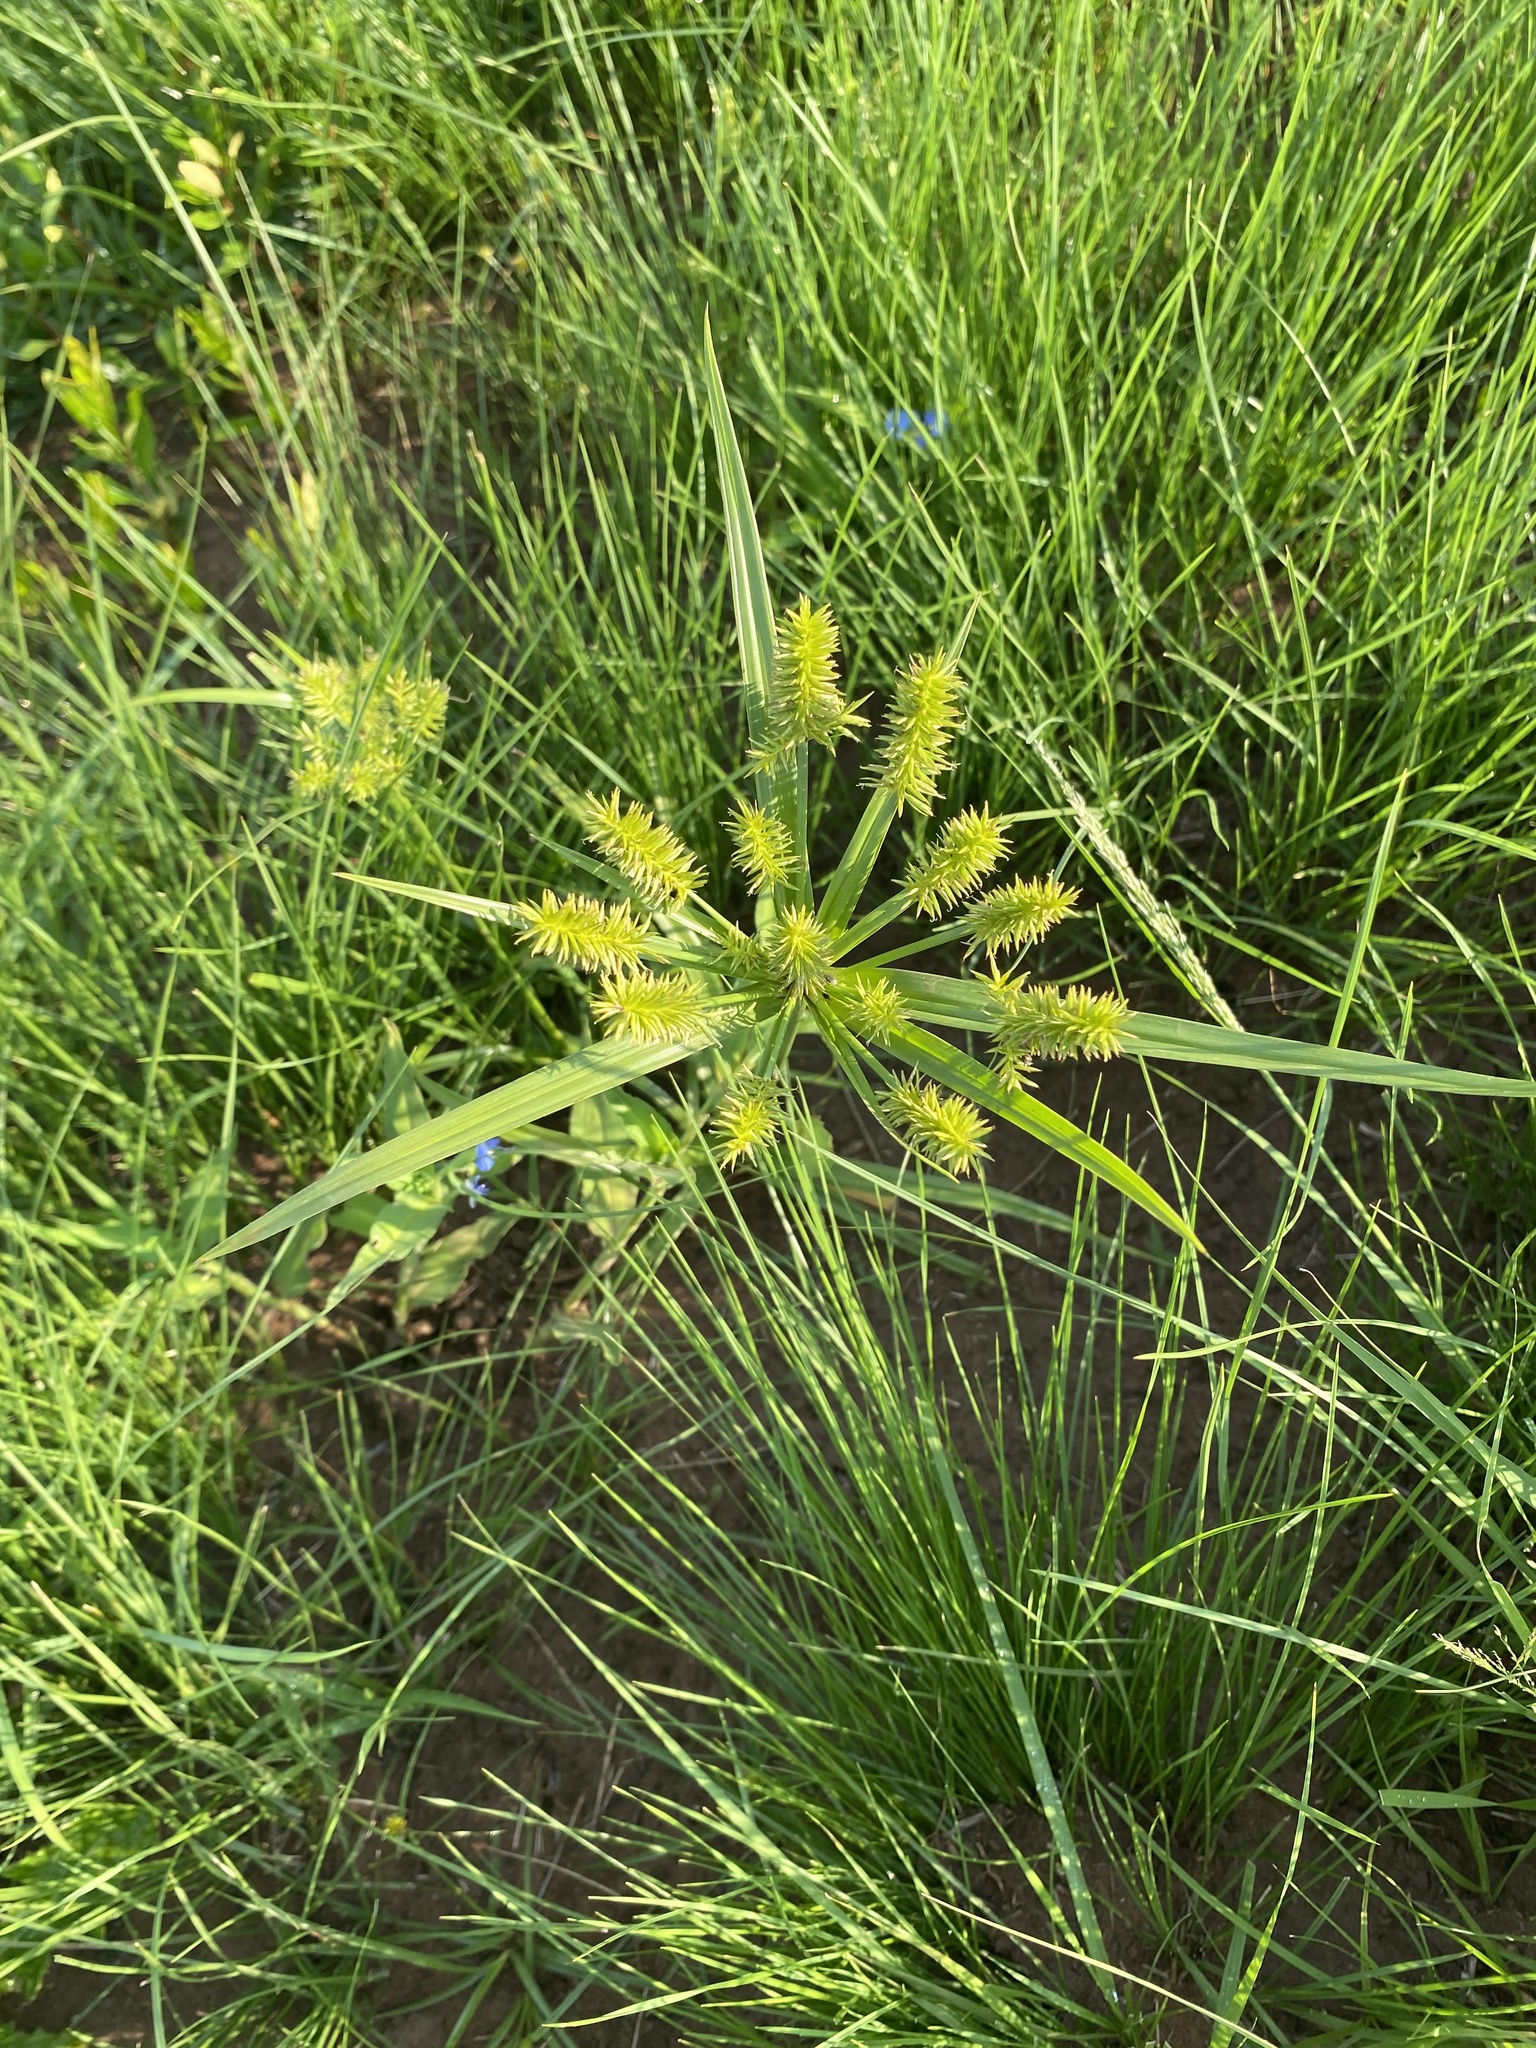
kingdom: Plantae
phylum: Tracheophyta
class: Liliopsida
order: Poales
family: Cyperaceae
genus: Cyperus
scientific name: Cyperus cyperoides
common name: Pacific island flat sedge
